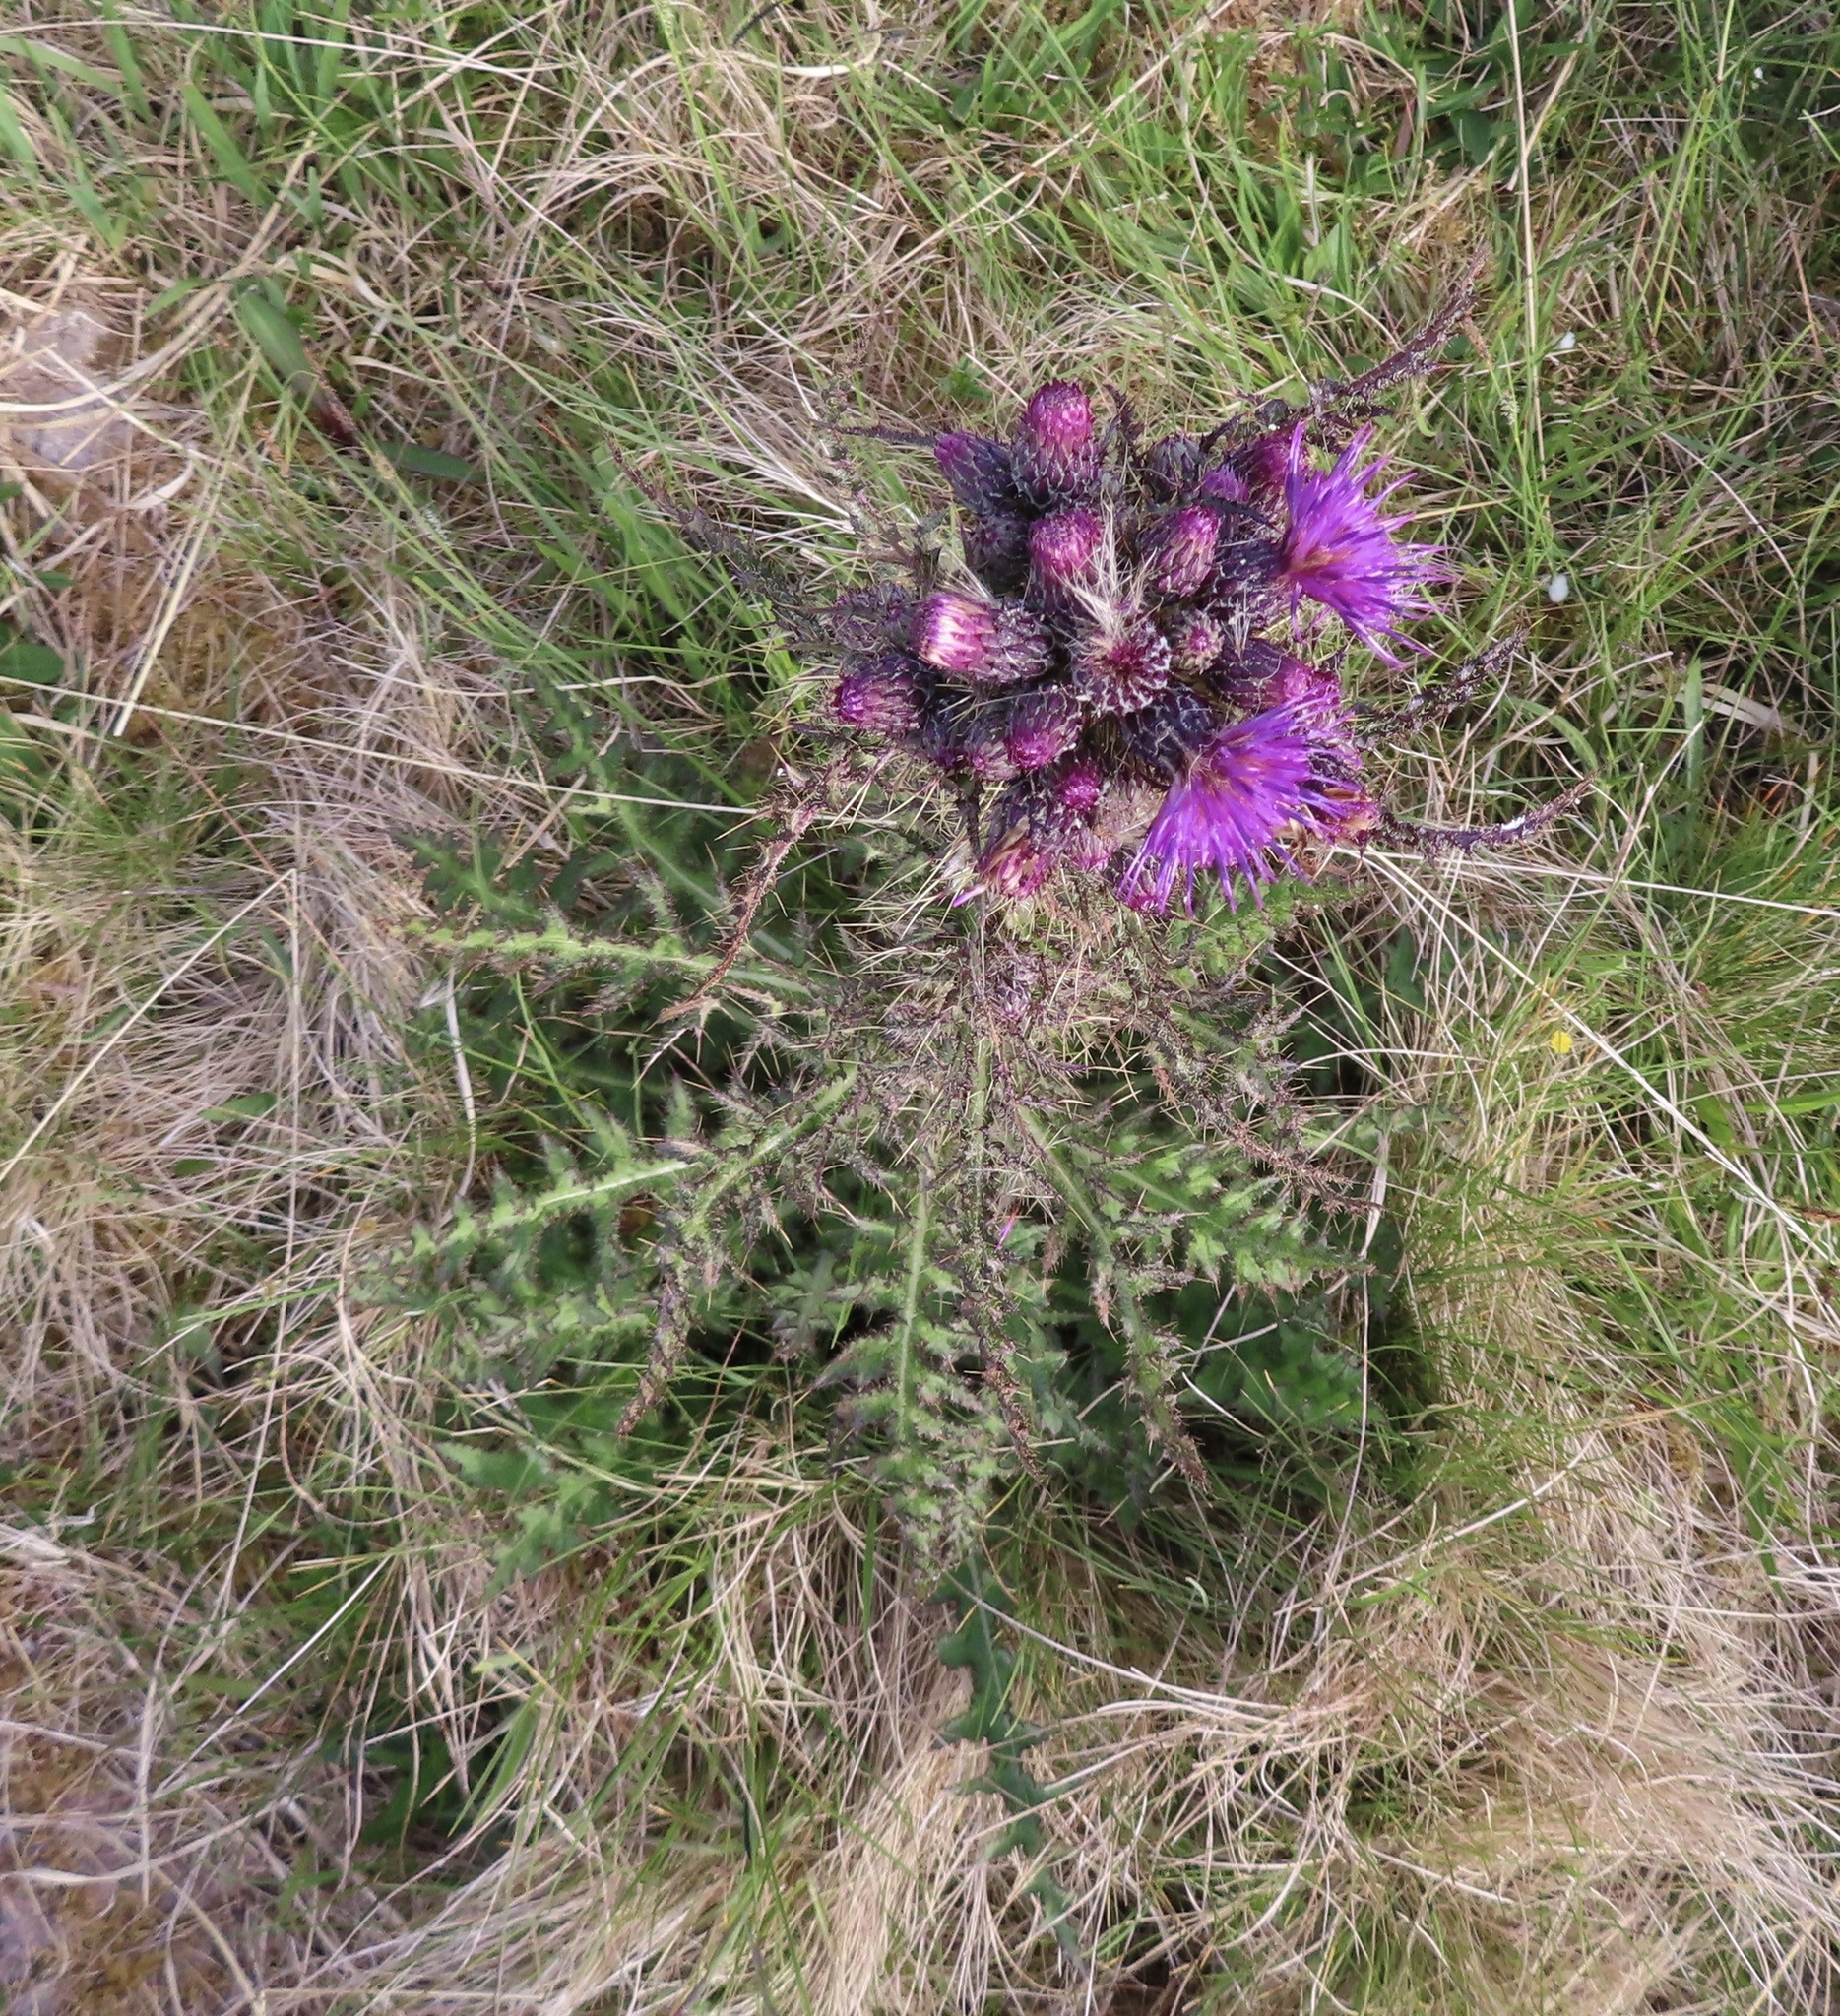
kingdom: Plantae
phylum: Tracheophyta
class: Magnoliopsida
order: Asterales
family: Asteraceae
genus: Cirsium
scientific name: Cirsium palustre
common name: Marsh thistle
